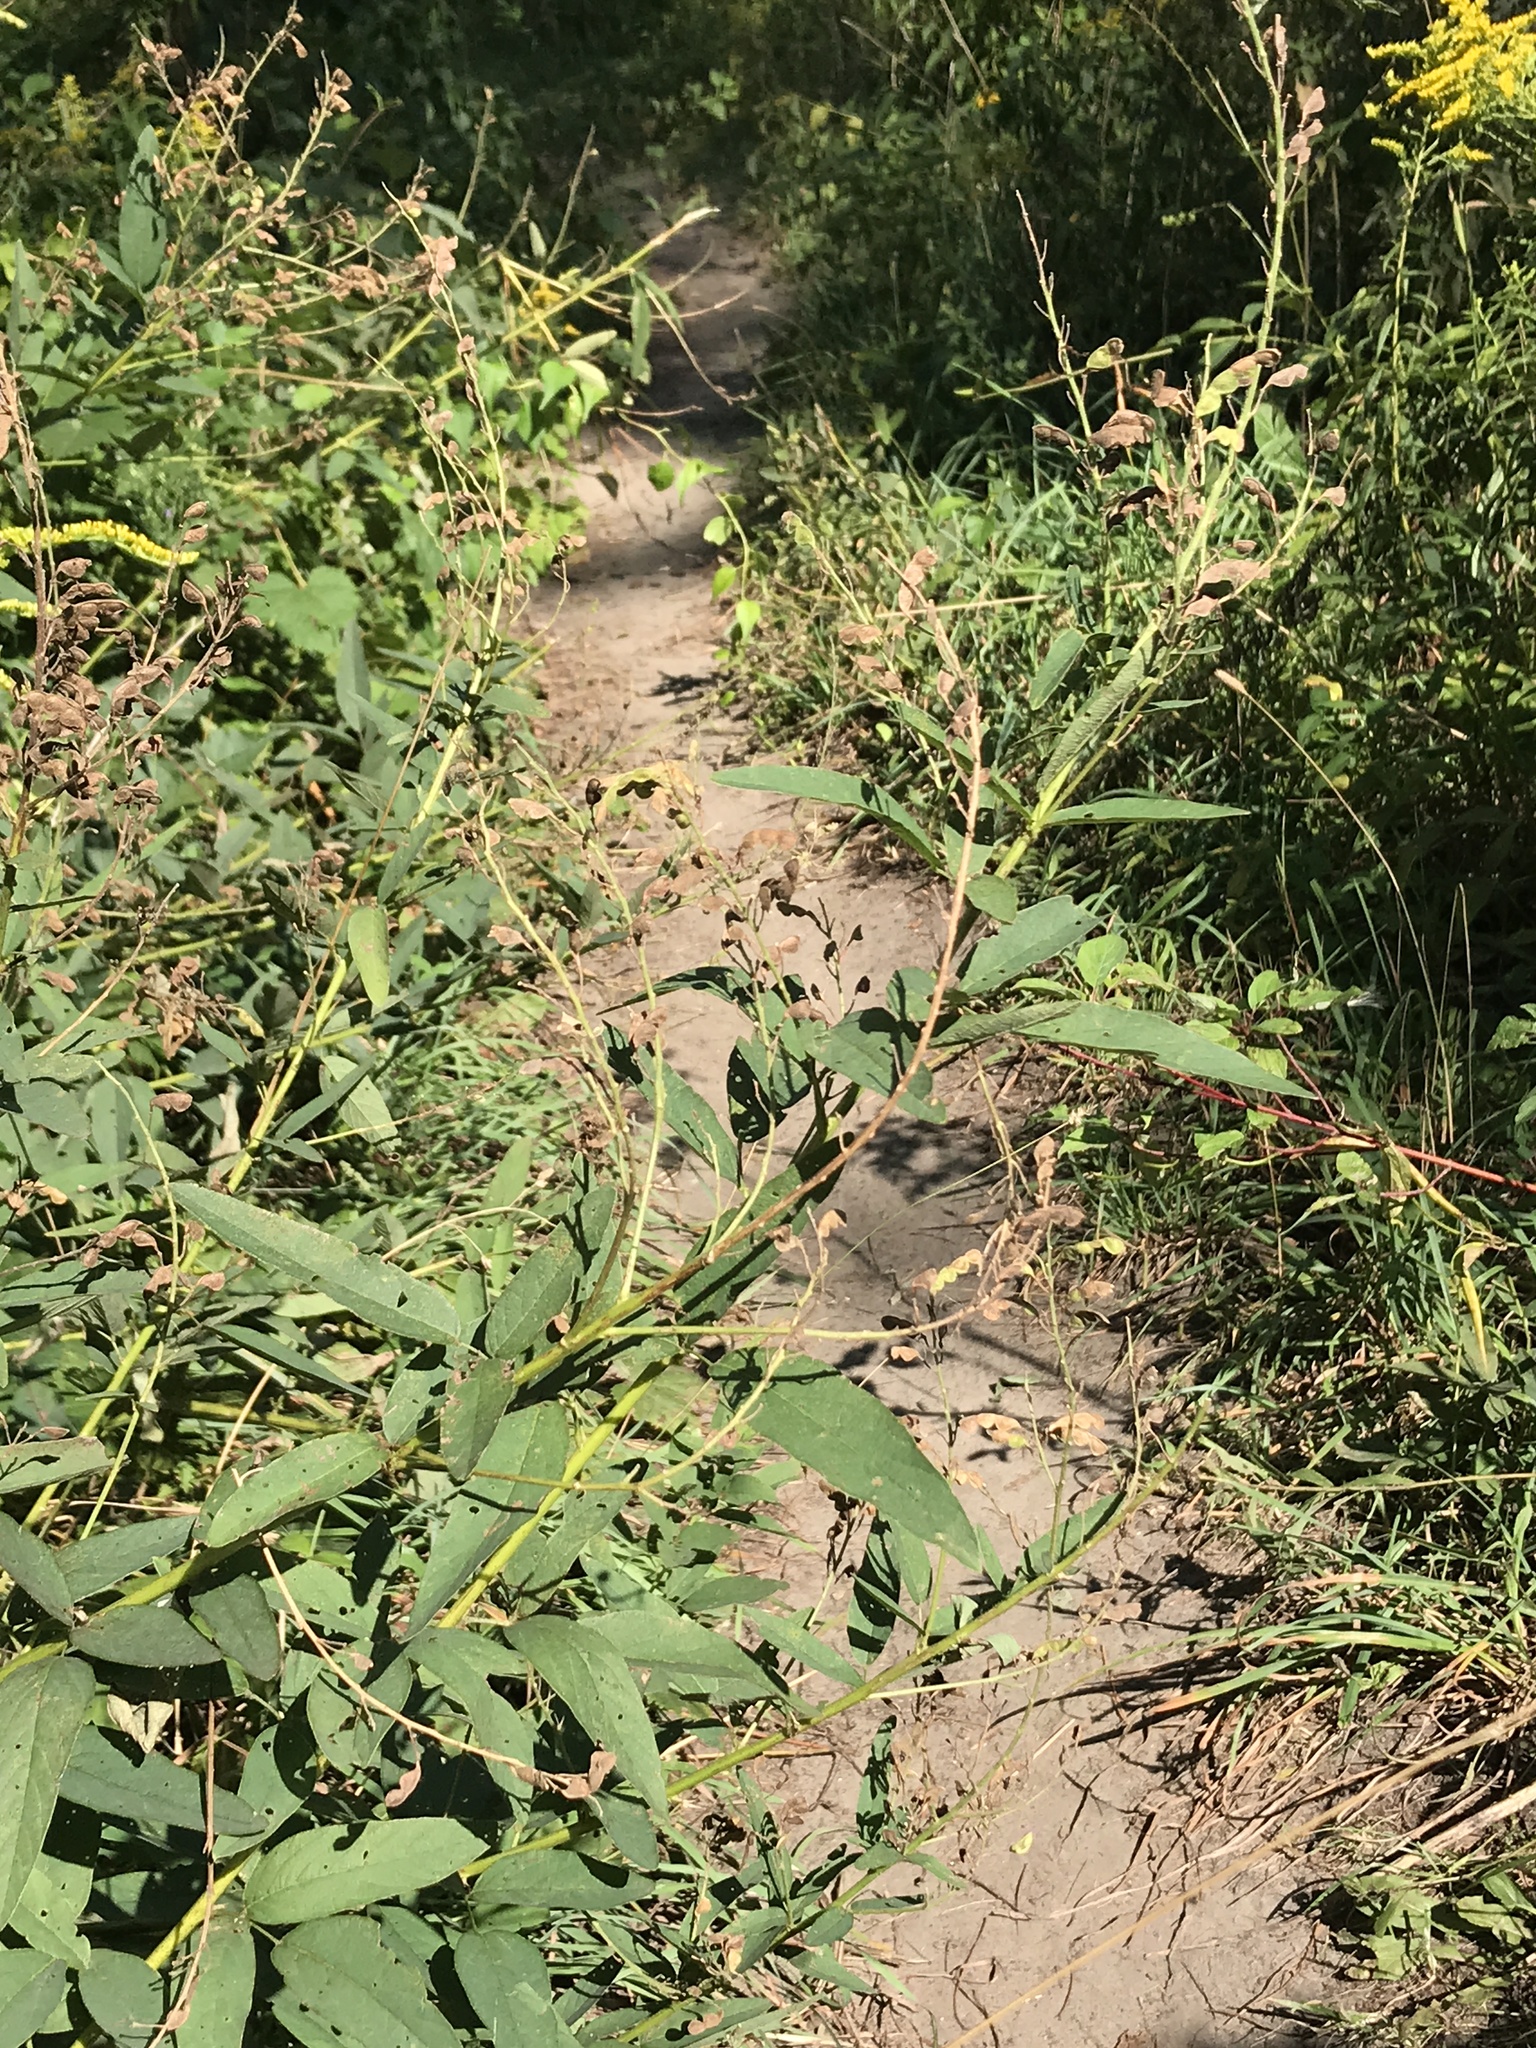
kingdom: Plantae
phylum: Tracheophyta
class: Magnoliopsida
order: Fabales
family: Fabaceae
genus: Desmodium
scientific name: Desmodium canadense
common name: Canada tick-trefoil
